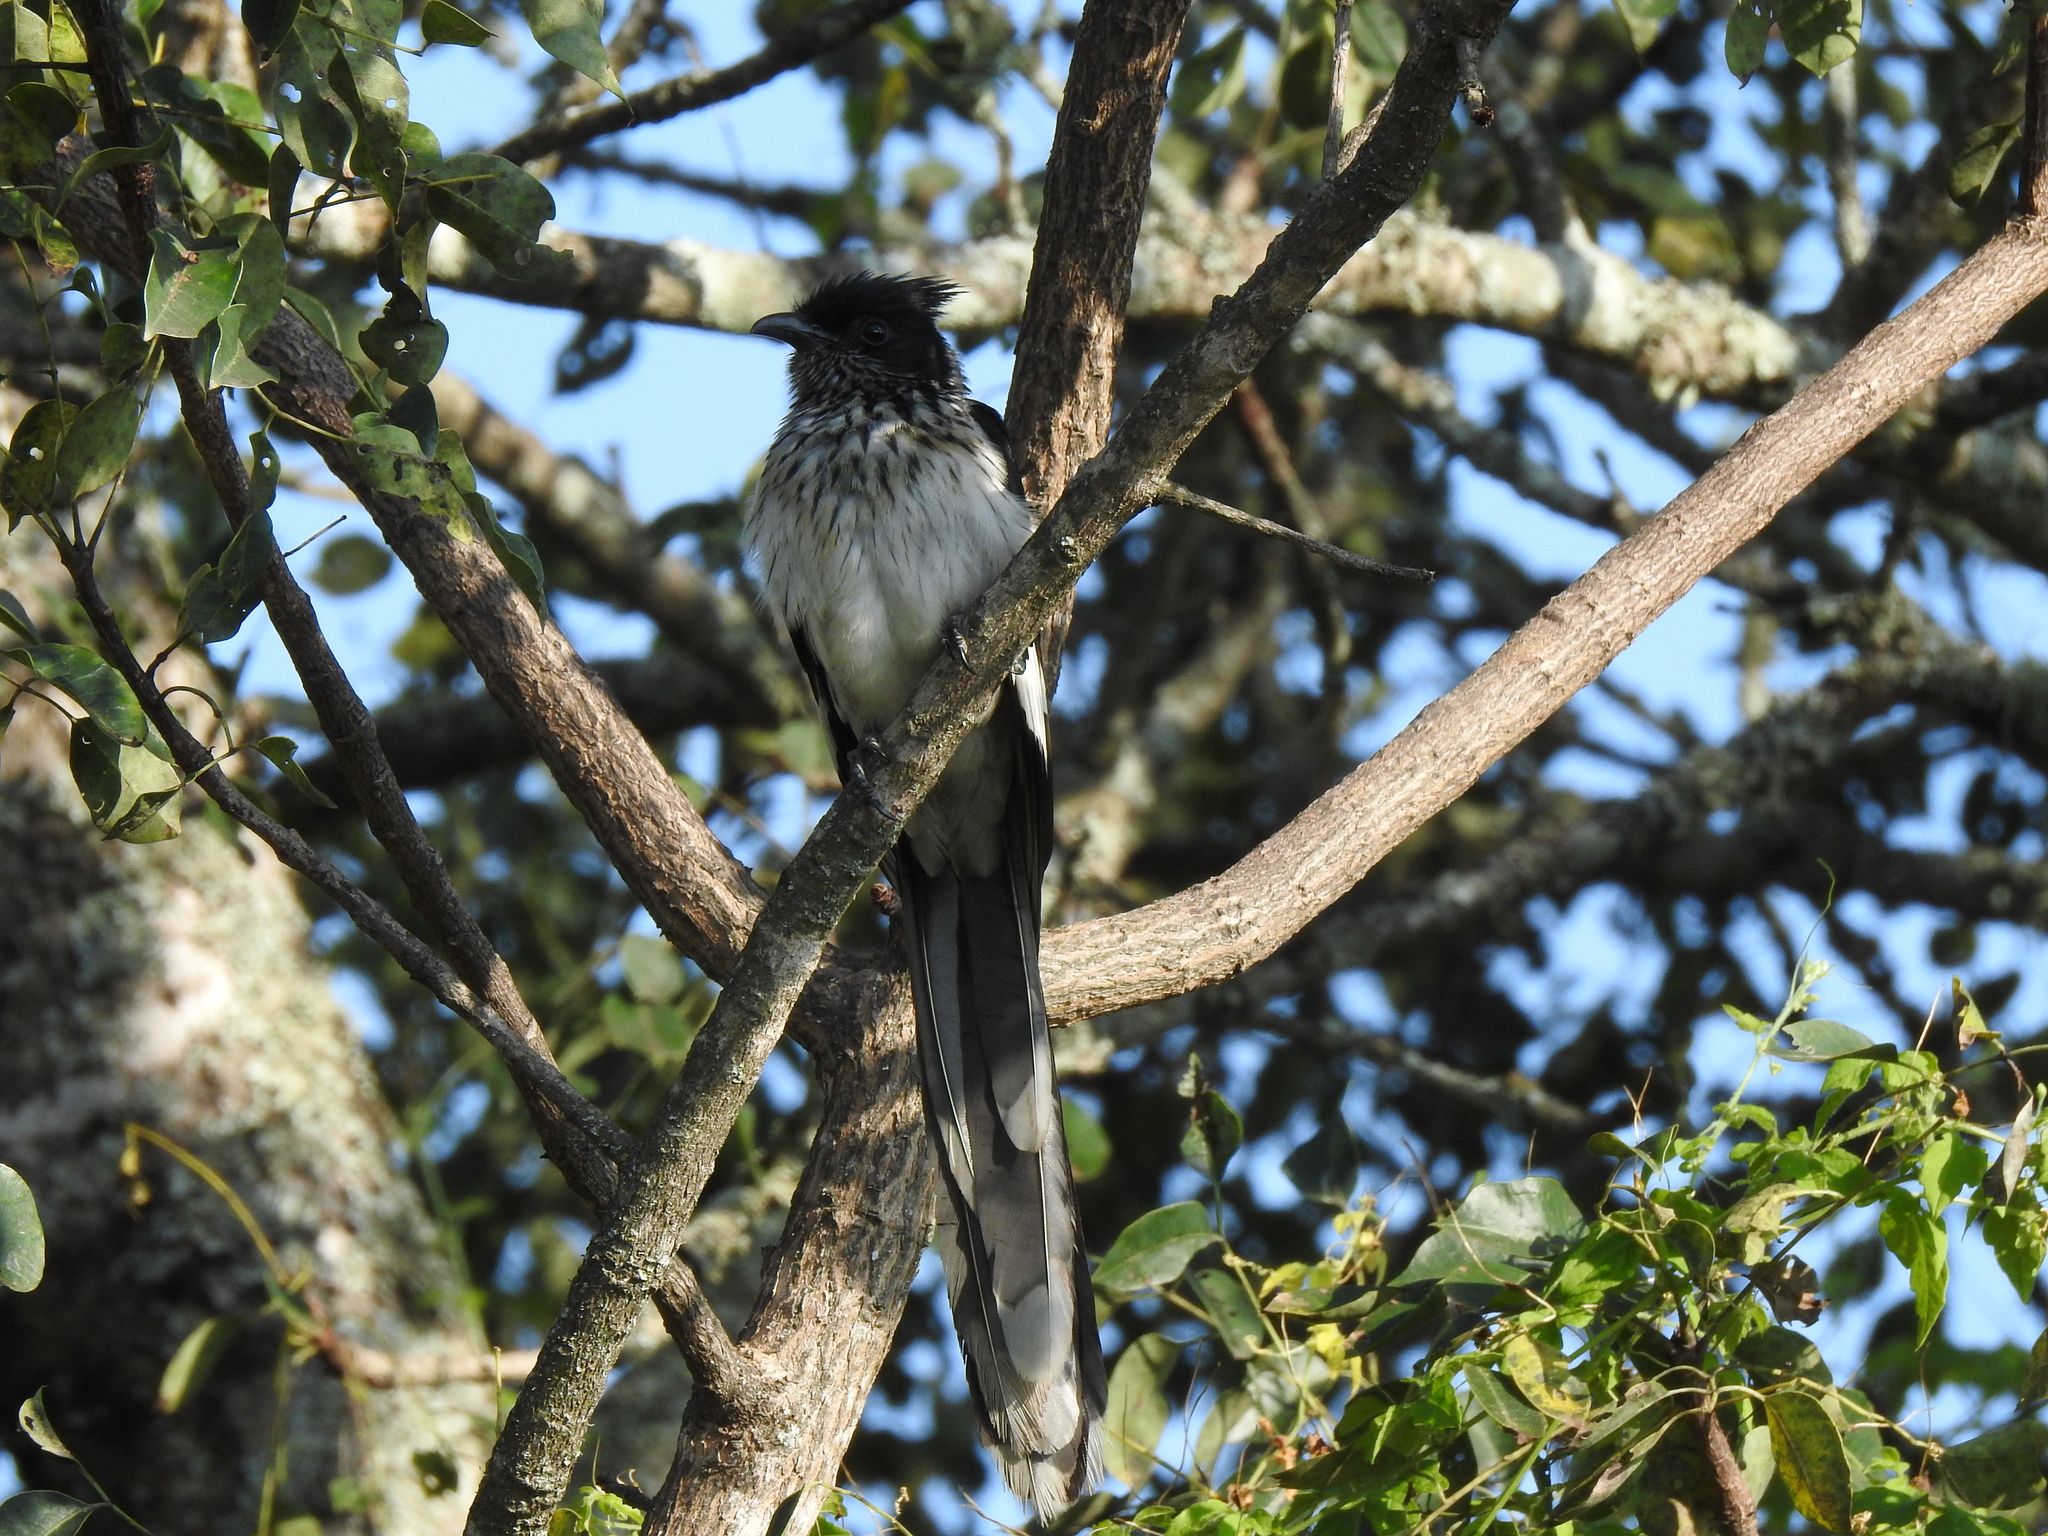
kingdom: Animalia
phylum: Chordata
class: Aves
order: Cuculiformes
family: Cuculidae
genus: Clamator
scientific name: Clamator levaillantii
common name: Levaillant's cuckoo
